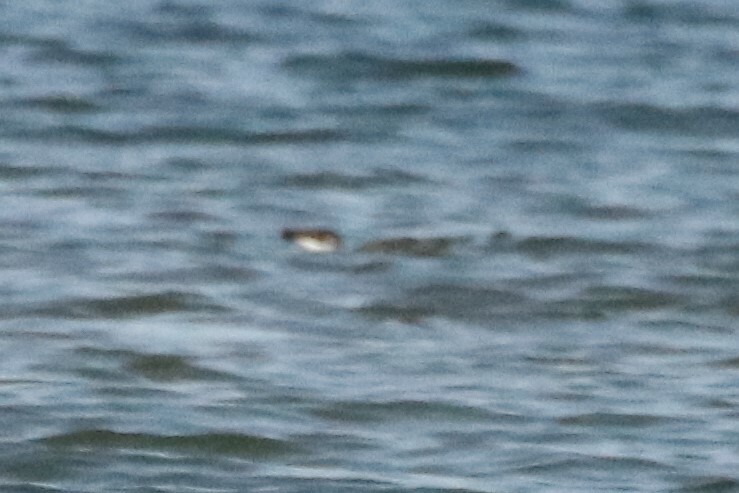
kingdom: Animalia
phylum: Chordata
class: Aves
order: Charadriiformes
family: Alcidae
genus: Alca
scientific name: Alca torda
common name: Razorbill
